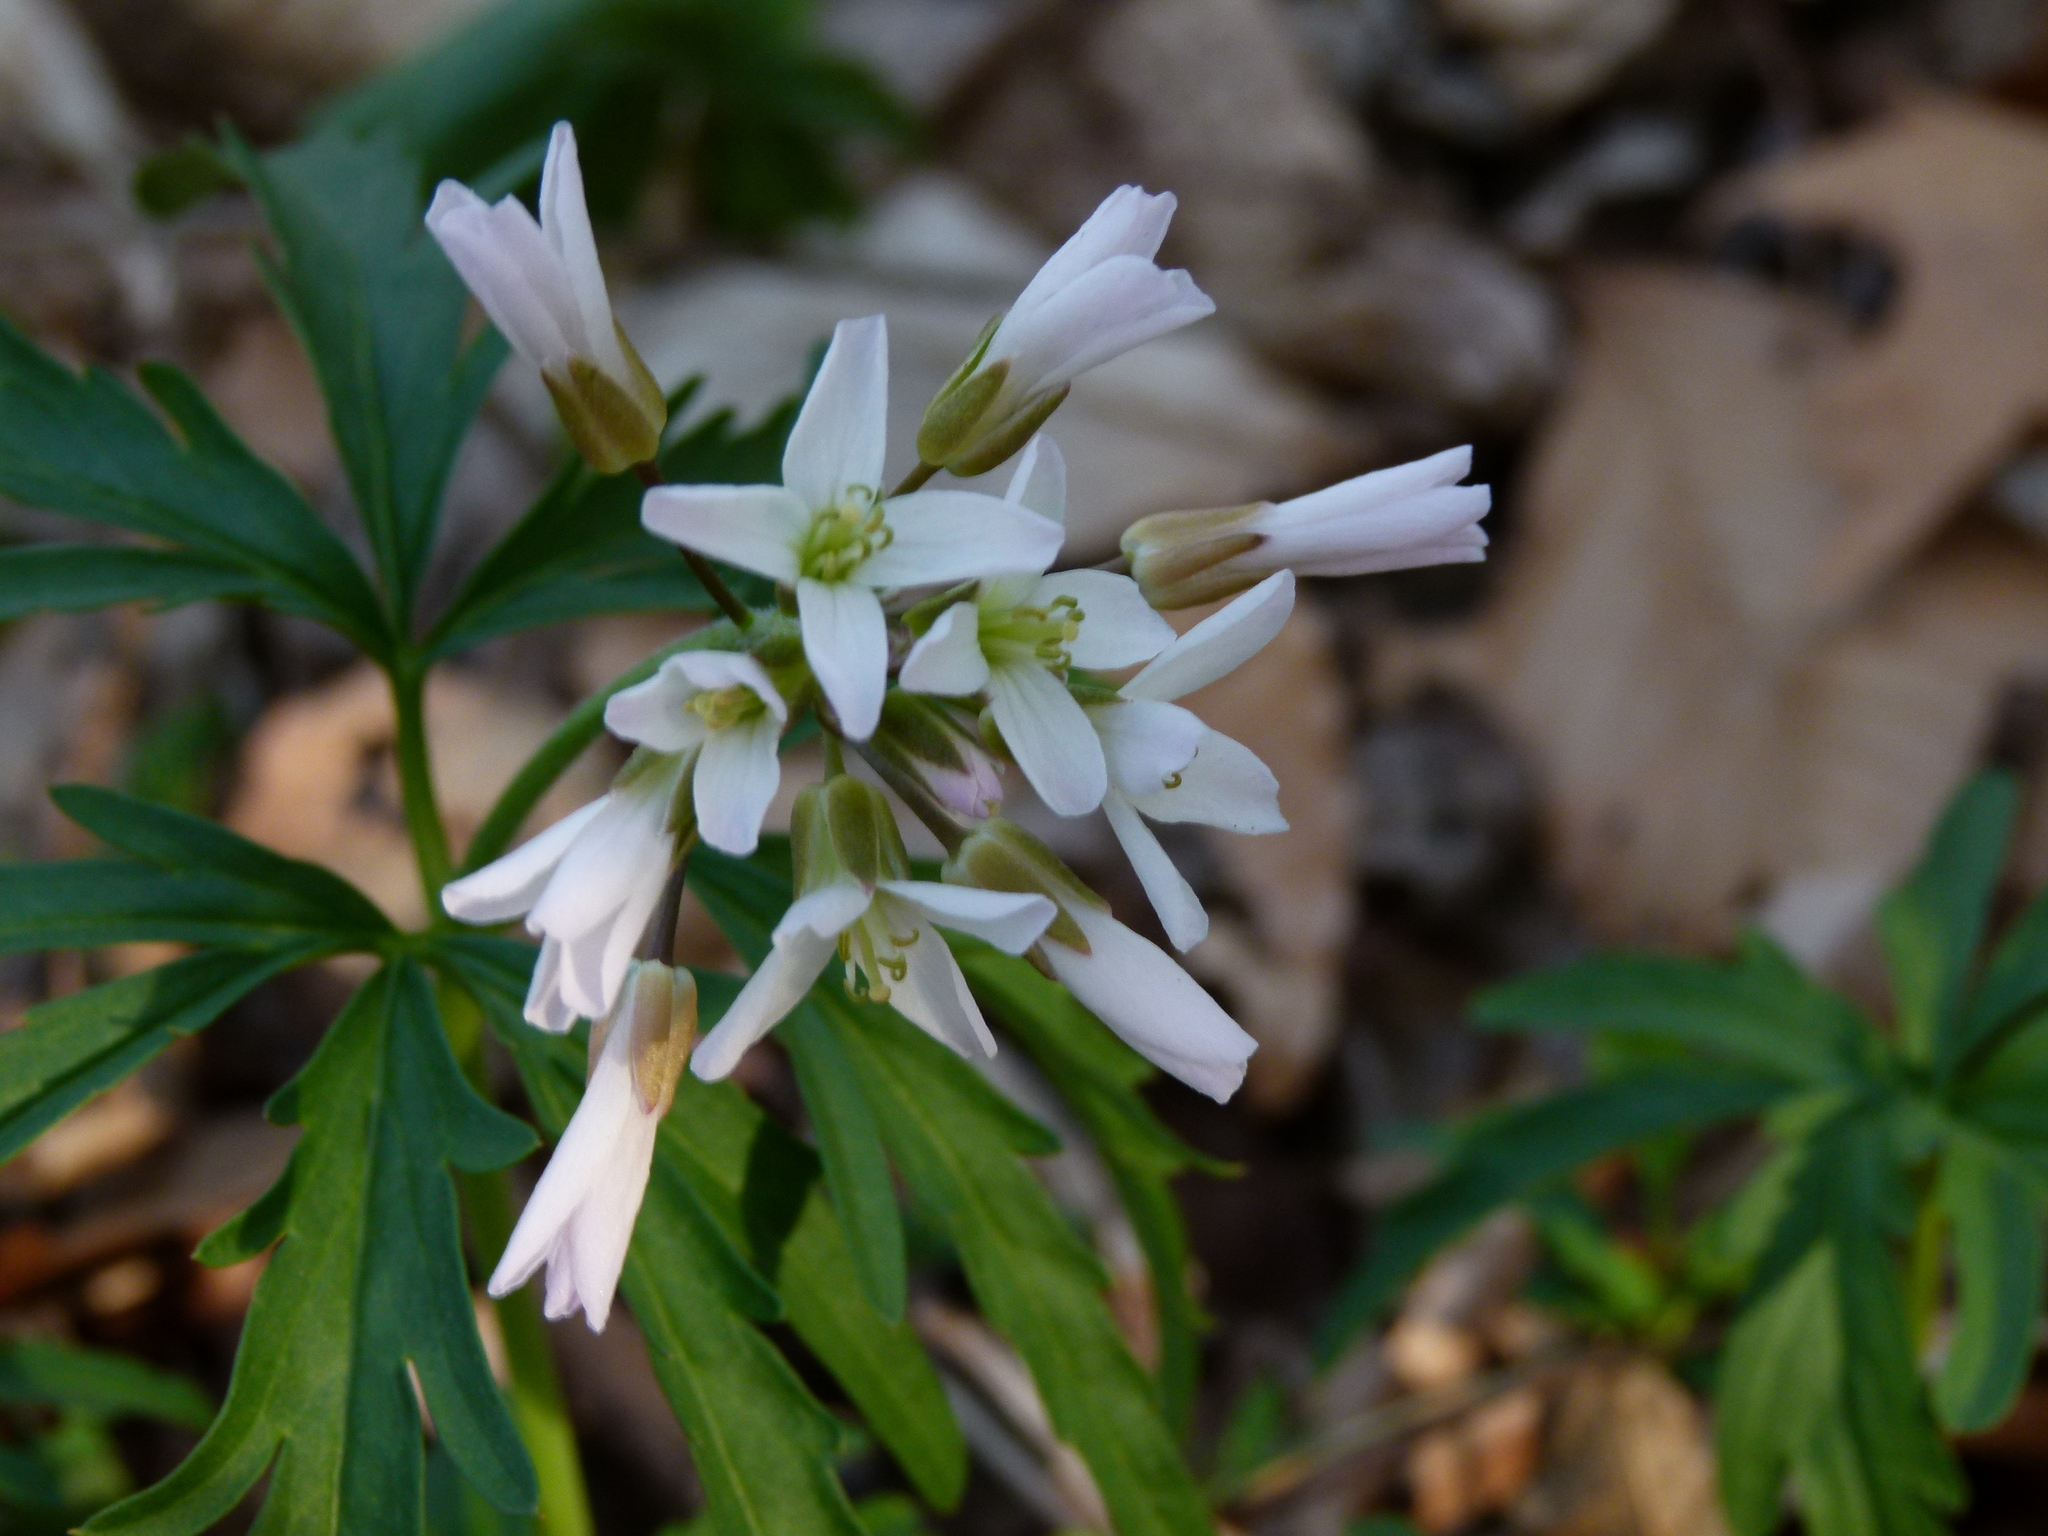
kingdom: Plantae
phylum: Tracheophyta
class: Magnoliopsida
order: Brassicales
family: Brassicaceae
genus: Cardamine
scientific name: Cardamine concatenata
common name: Cut-leaf toothcup
